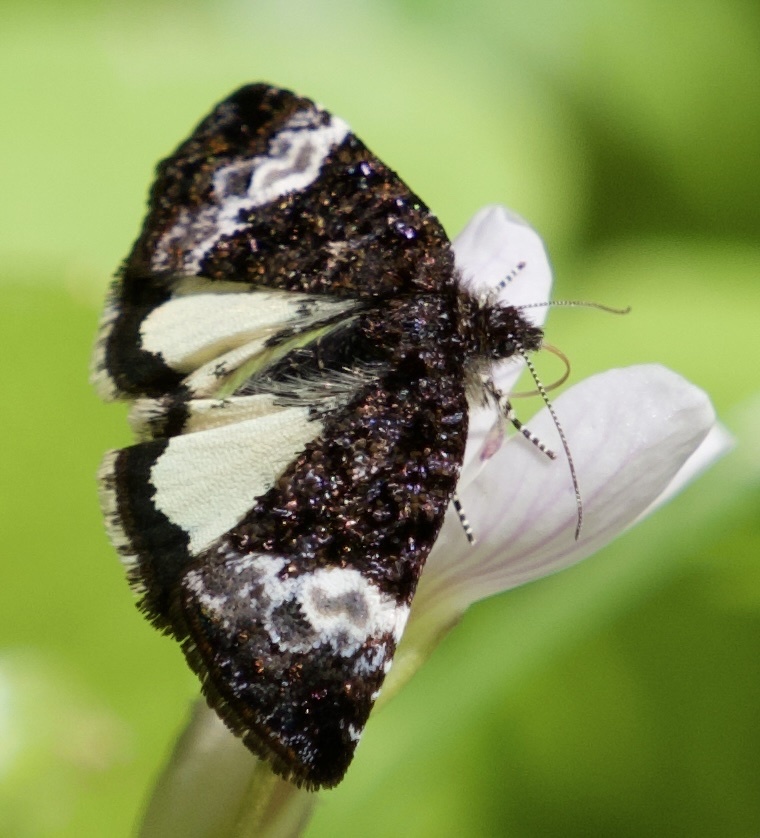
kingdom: Animalia
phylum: Arthropoda
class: Insecta
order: Lepidoptera
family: Noctuidae
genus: Annaphila
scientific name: Annaphila diva
